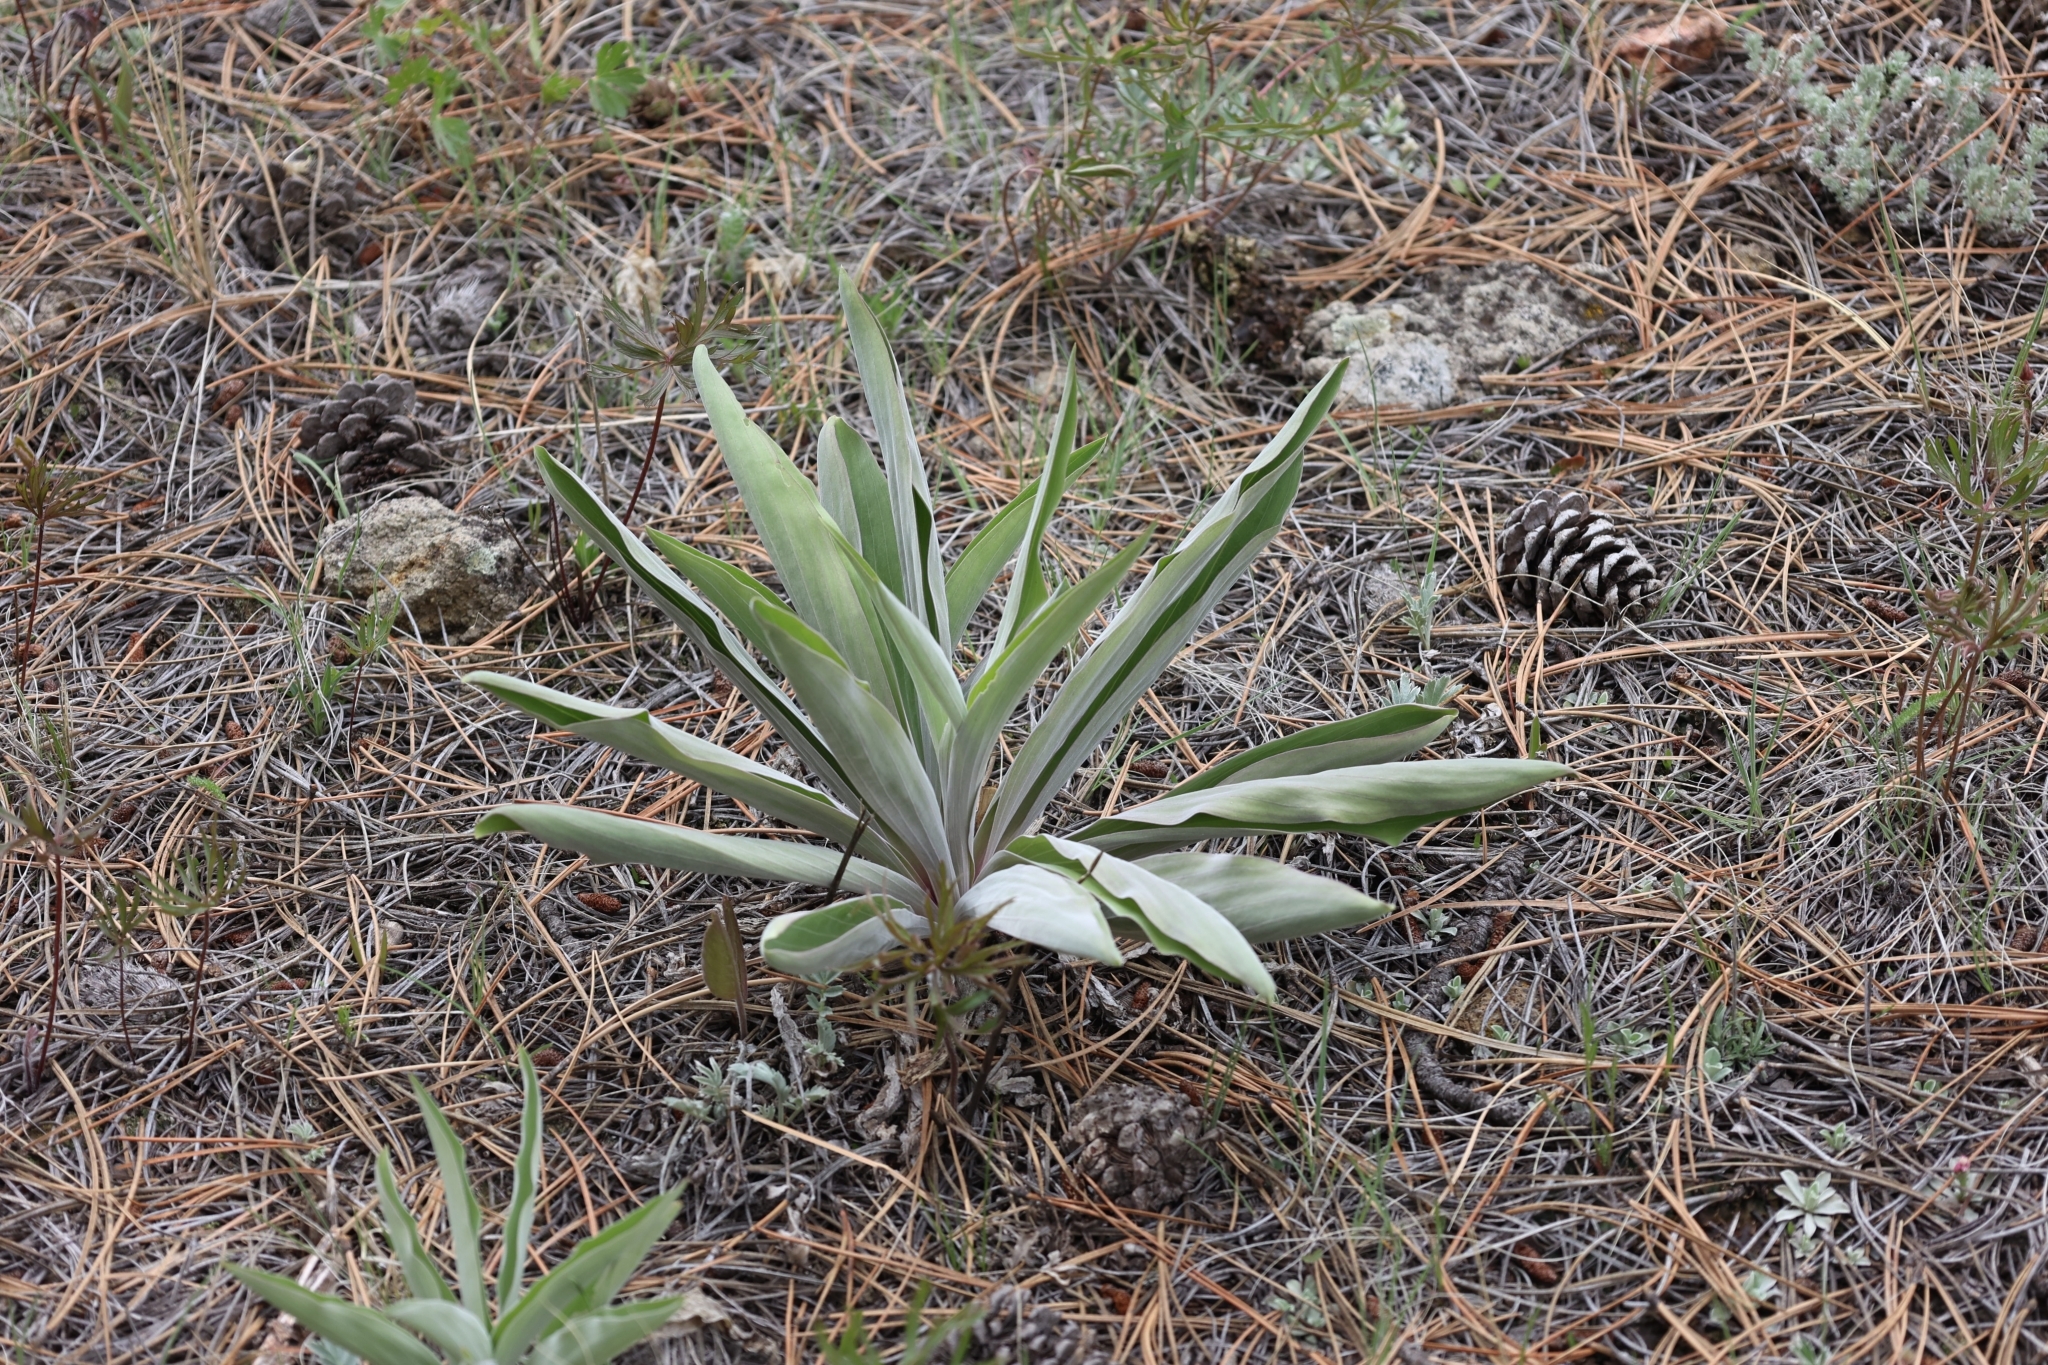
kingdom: Plantae
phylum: Tracheophyta
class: Magnoliopsida
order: Gentianales
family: Gentianaceae
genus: Frasera
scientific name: Frasera speciosa
